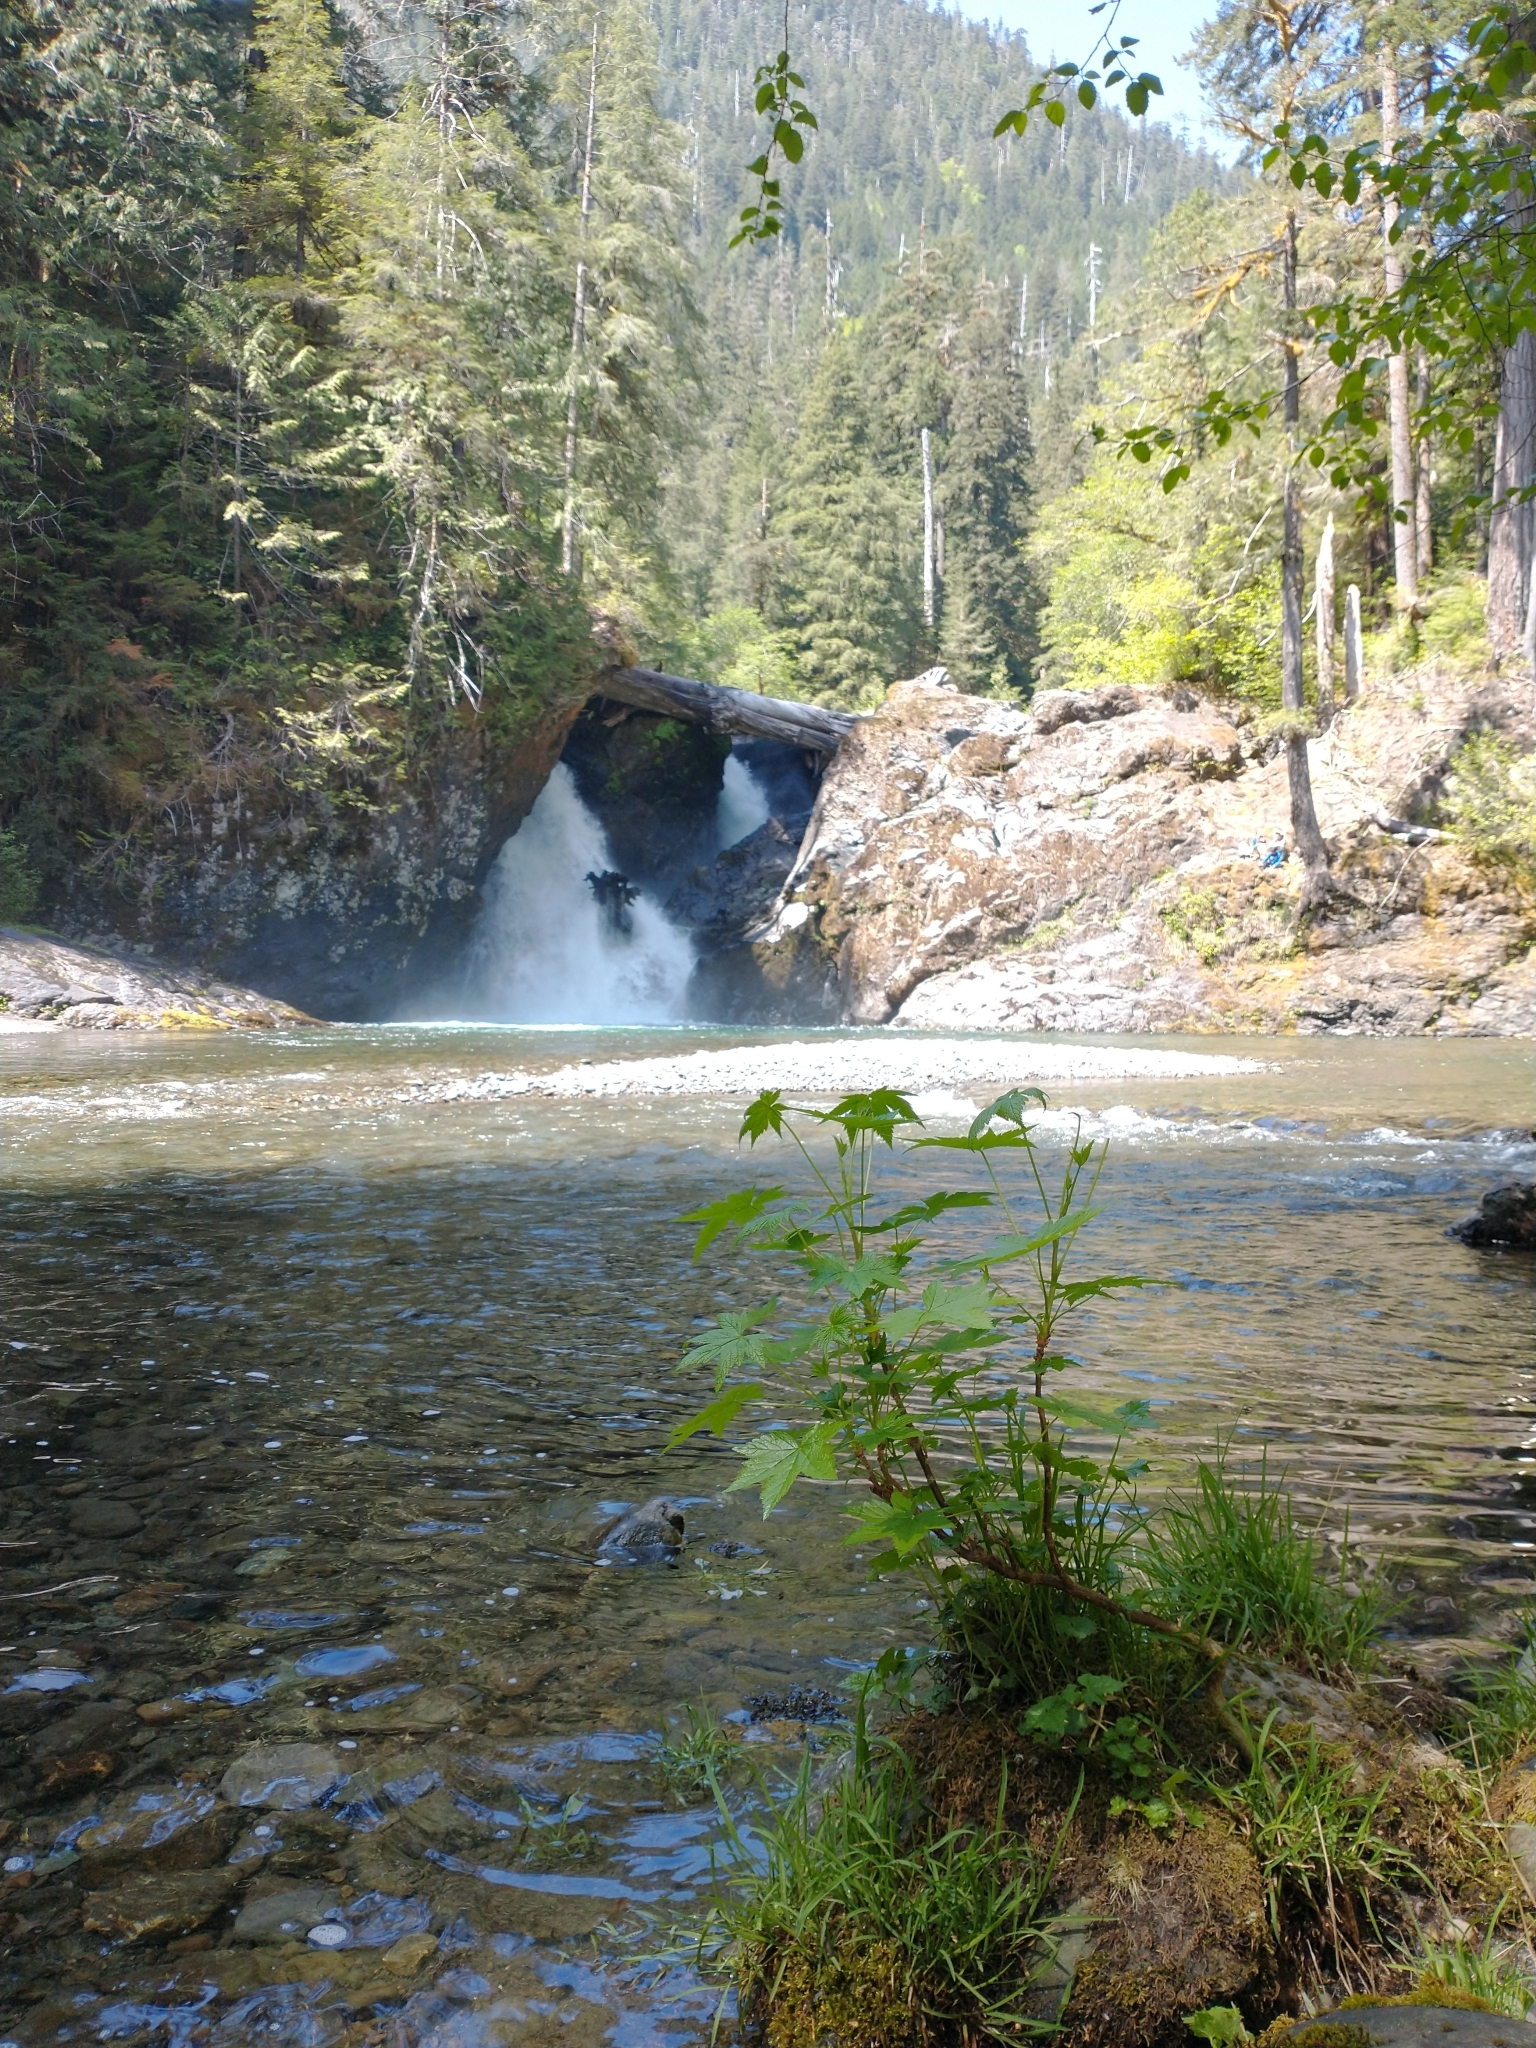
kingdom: Plantae
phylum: Tracheophyta
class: Magnoliopsida
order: Saxifragales
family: Grossulariaceae
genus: Ribes
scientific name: Ribes bracteosum
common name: California black currant
